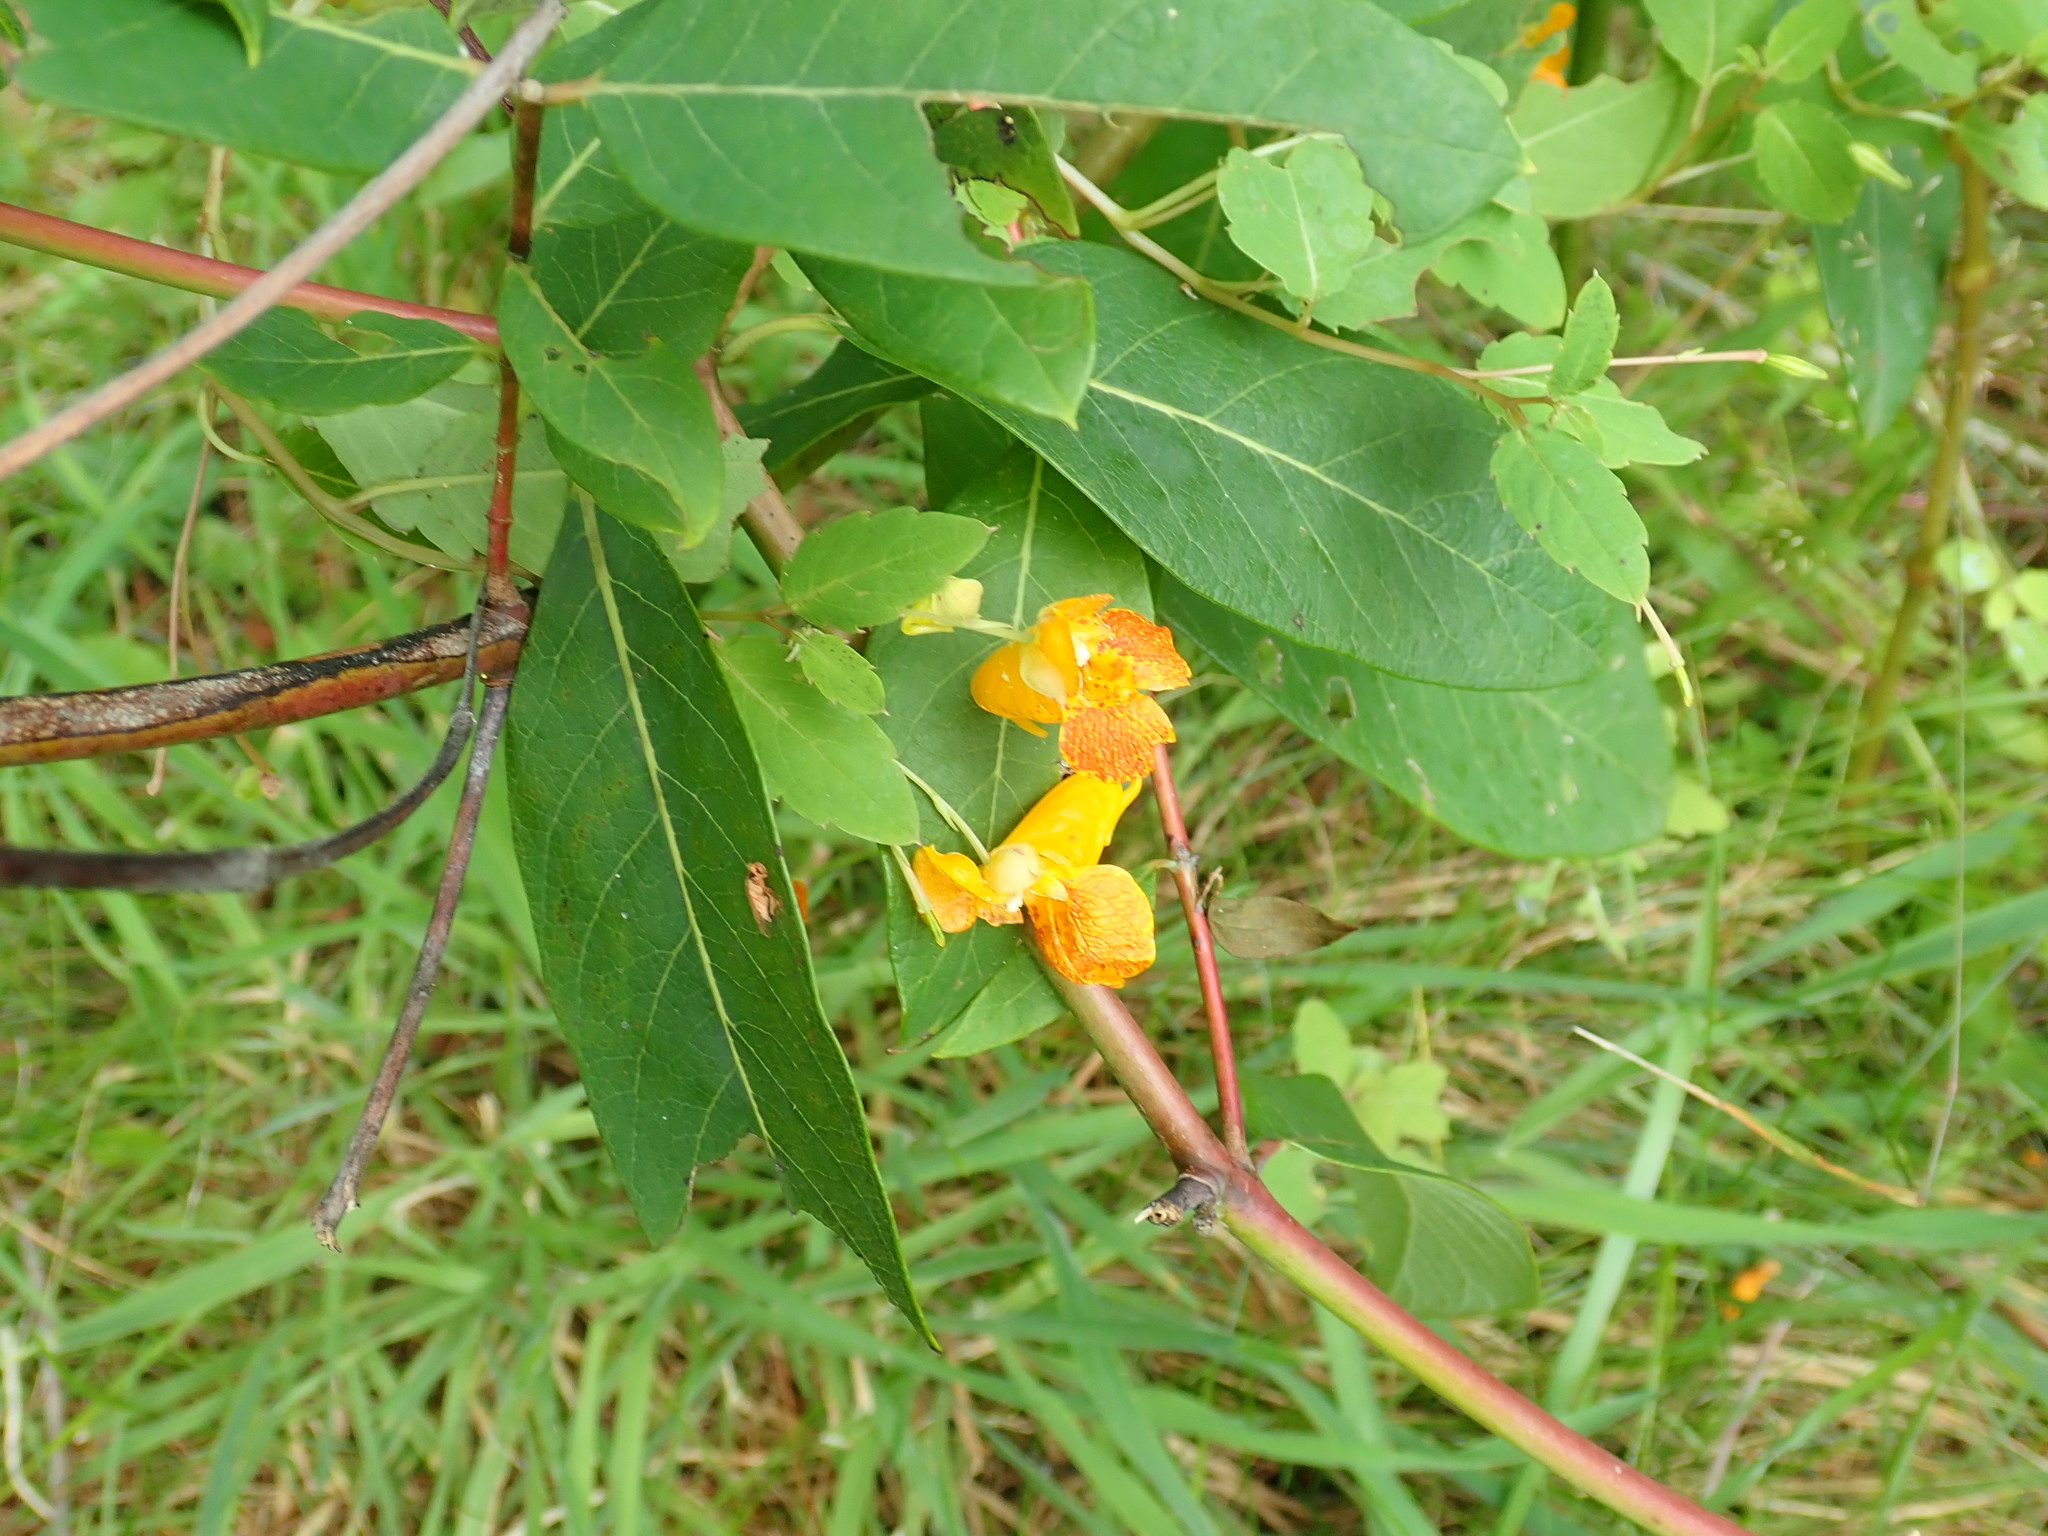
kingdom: Plantae
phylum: Tracheophyta
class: Magnoliopsida
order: Ericales
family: Balsaminaceae
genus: Impatiens
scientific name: Impatiens capensis
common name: Orange balsam
